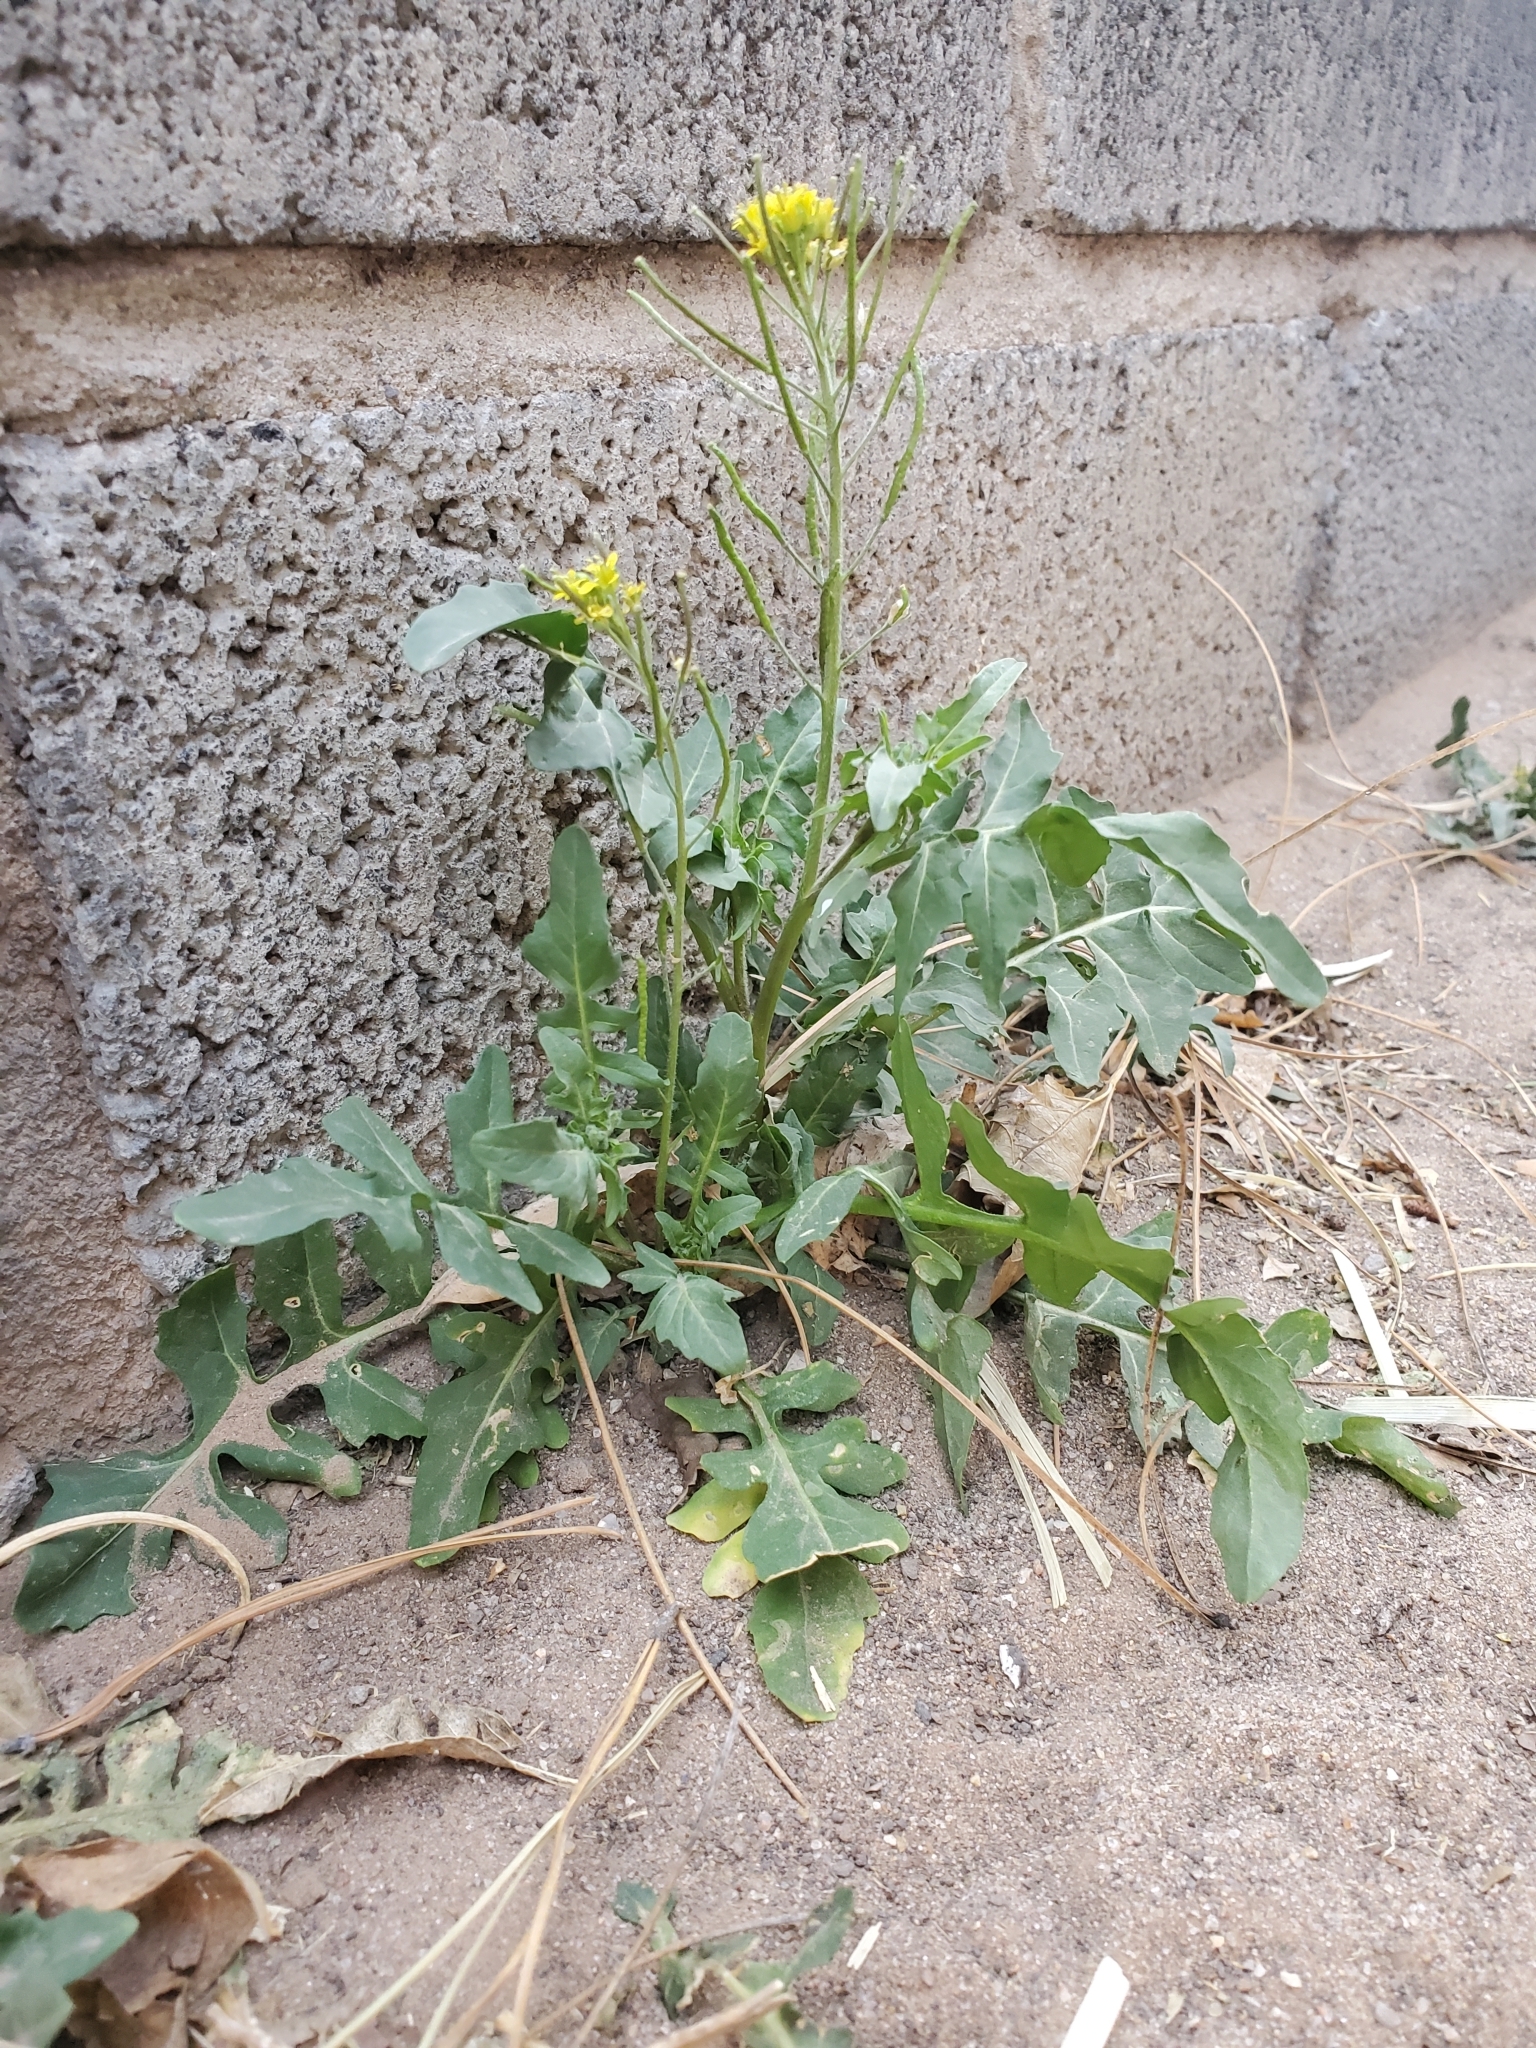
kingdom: Plantae
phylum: Tracheophyta
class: Magnoliopsida
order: Brassicales
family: Brassicaceae
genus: Sisymbrium
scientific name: Sisymbrium irio
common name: London rocket
